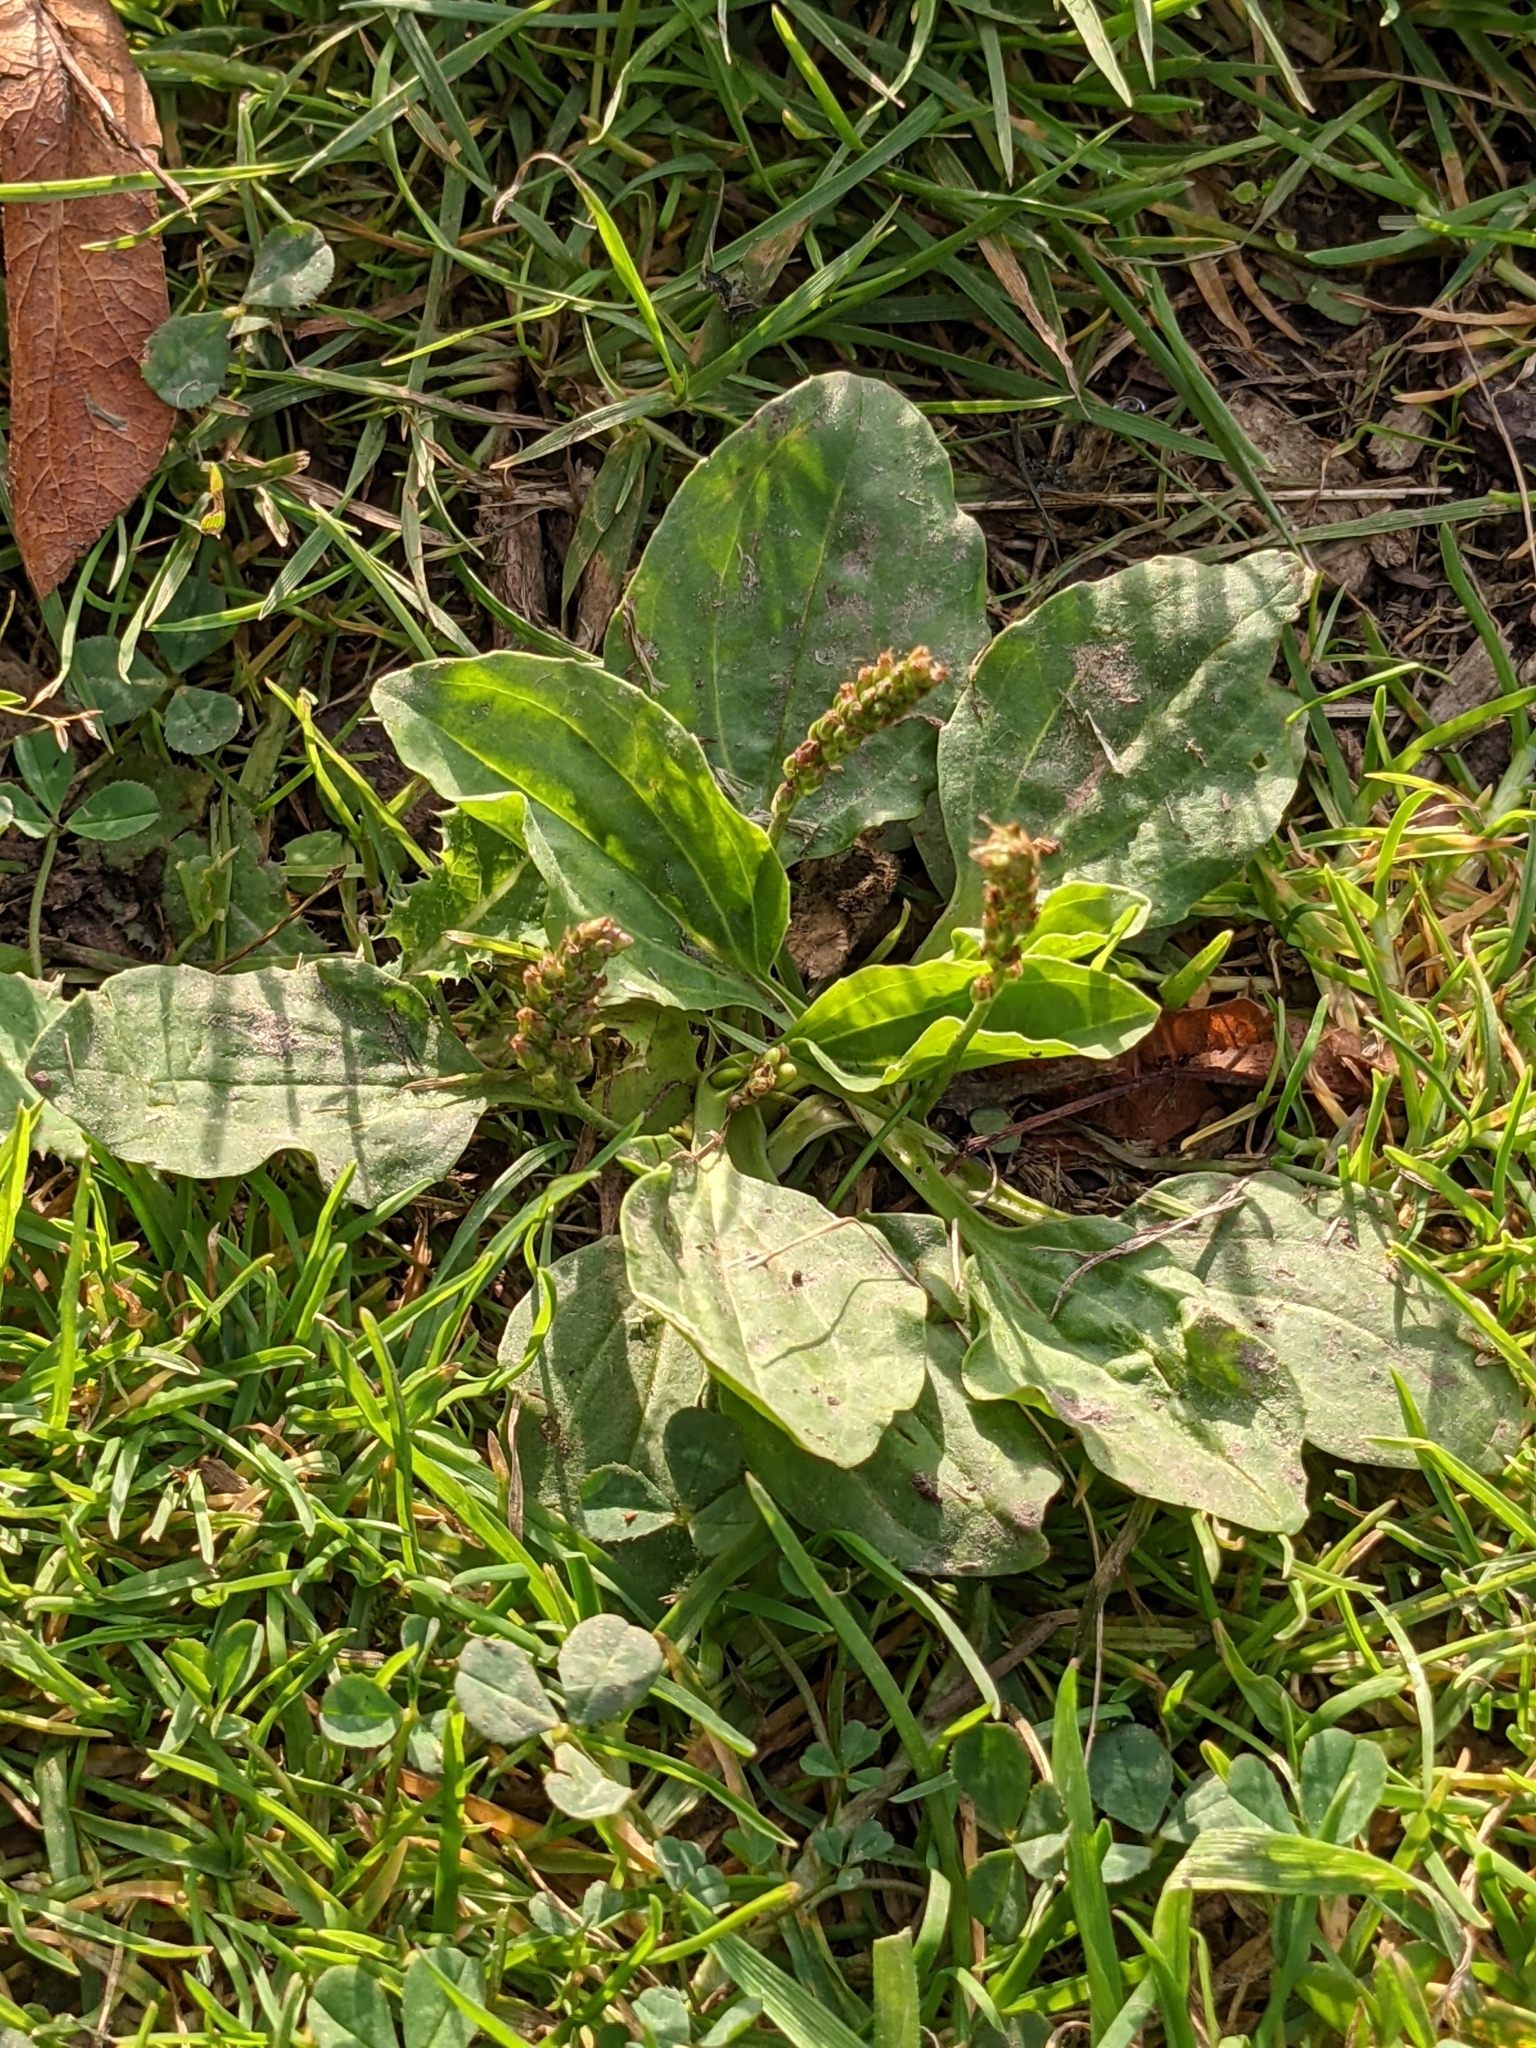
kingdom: Plantae
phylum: Tracheophyta
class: Magnoliopsida
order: Lamiales
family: Plantaginaceae
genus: Plantago
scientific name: Plantago major
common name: Common plantain
